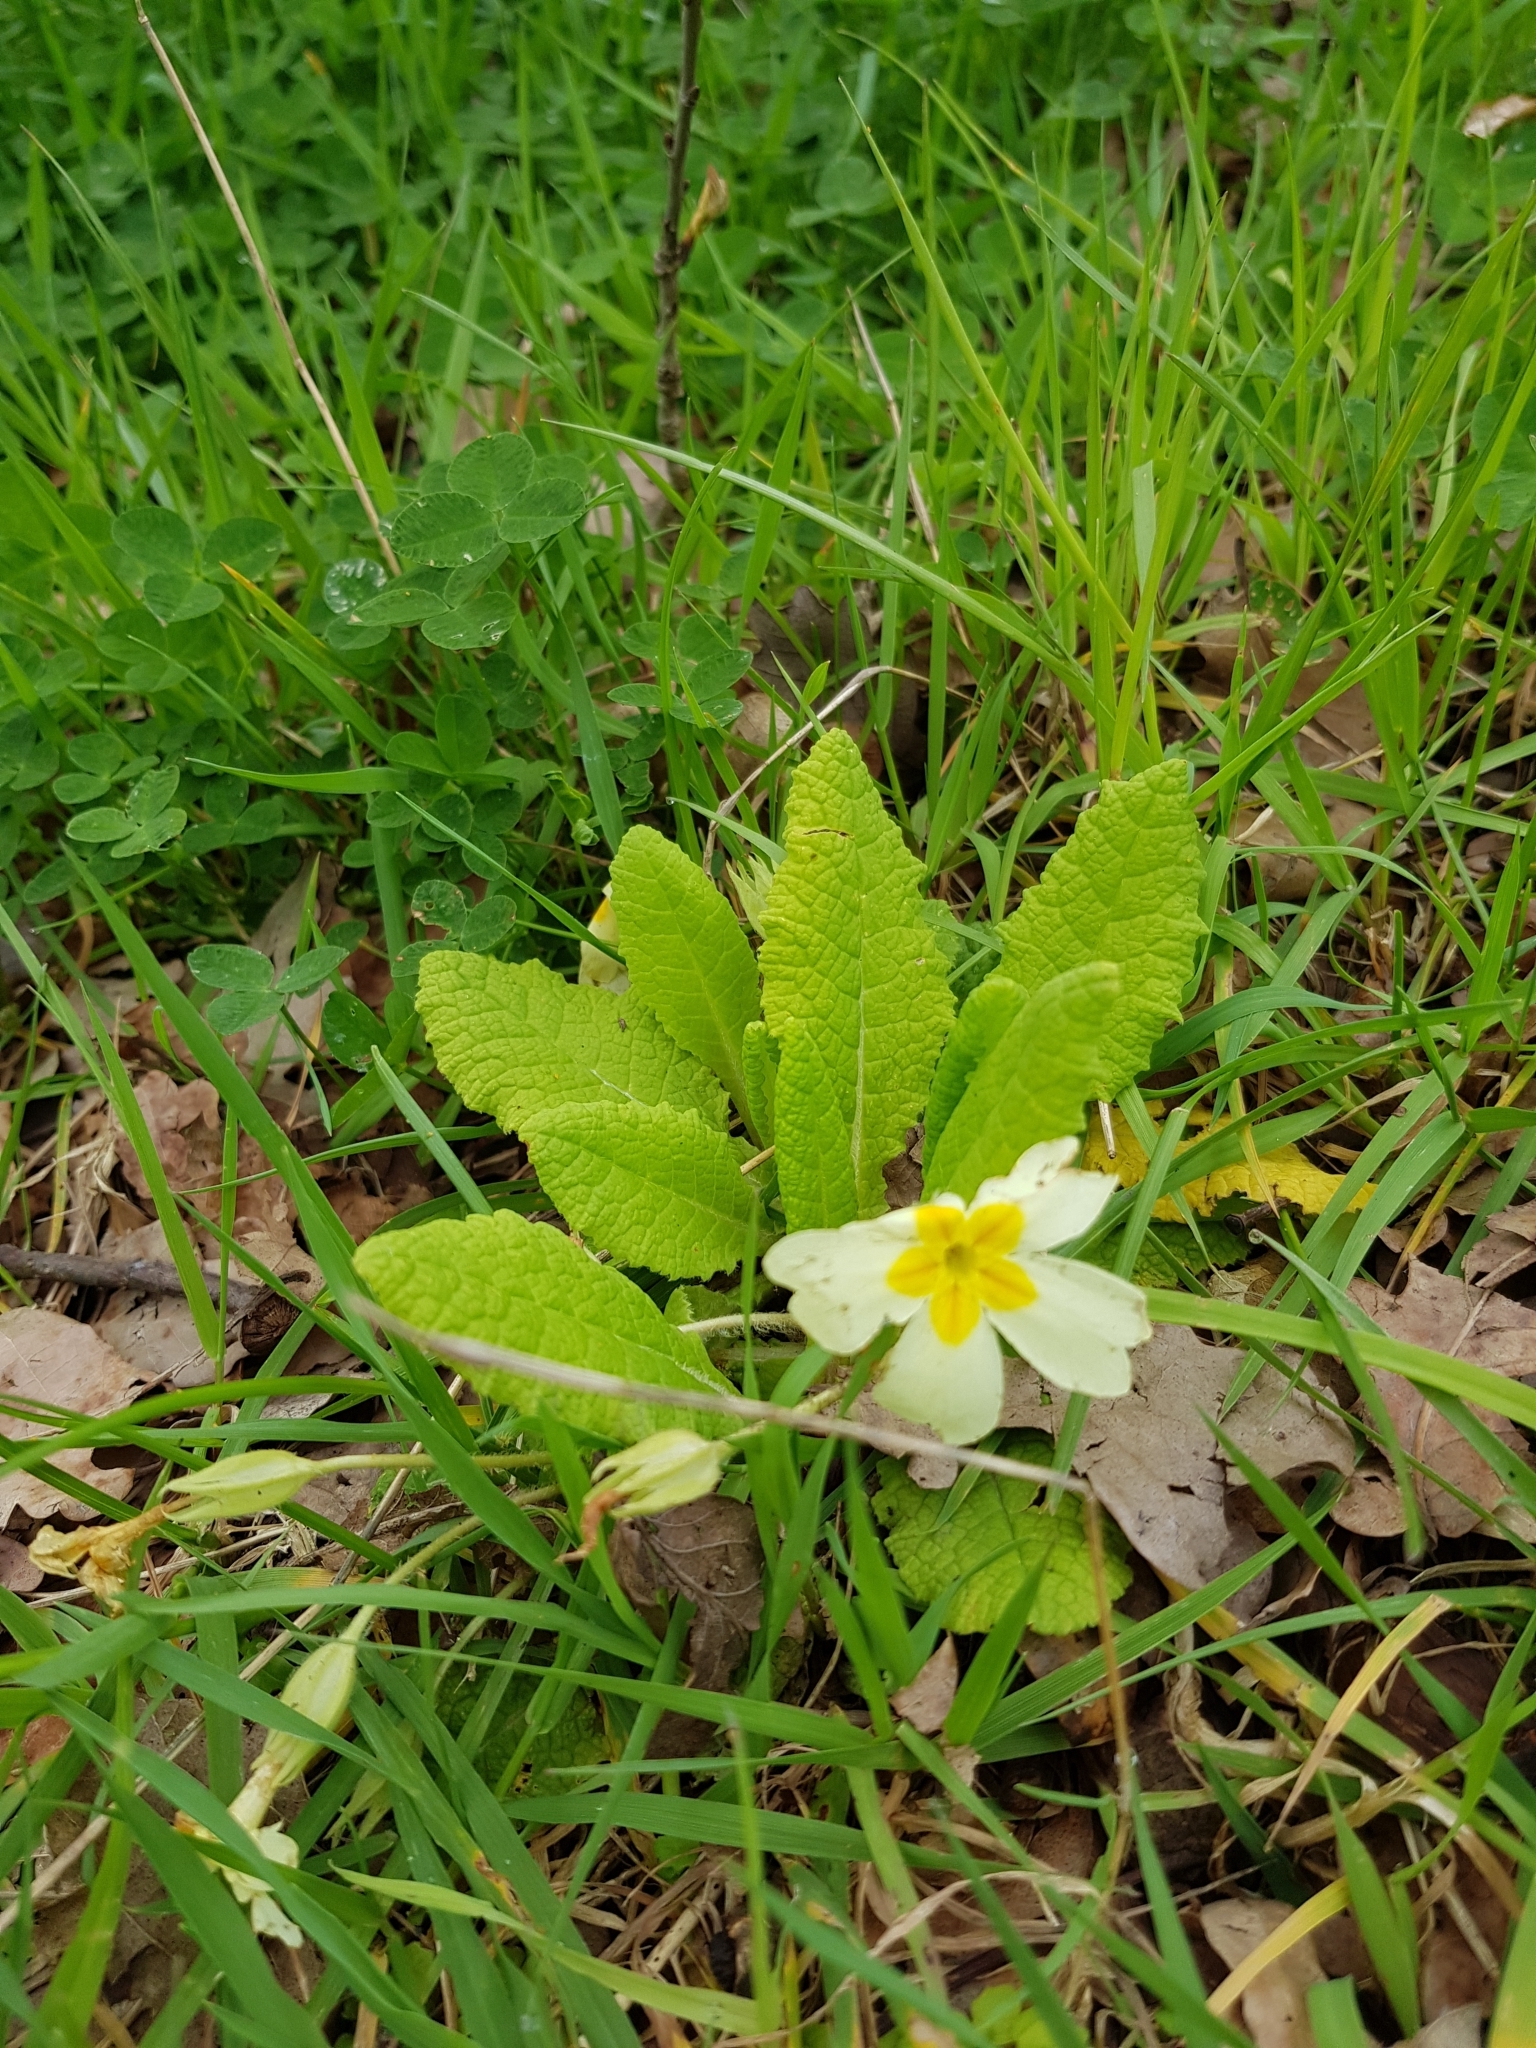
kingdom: Plantae
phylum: Tracheophyta
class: Magnoliopsida
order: Ericales
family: Primulaceae
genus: Primula
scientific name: Primula vulgaris
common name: Primrose
